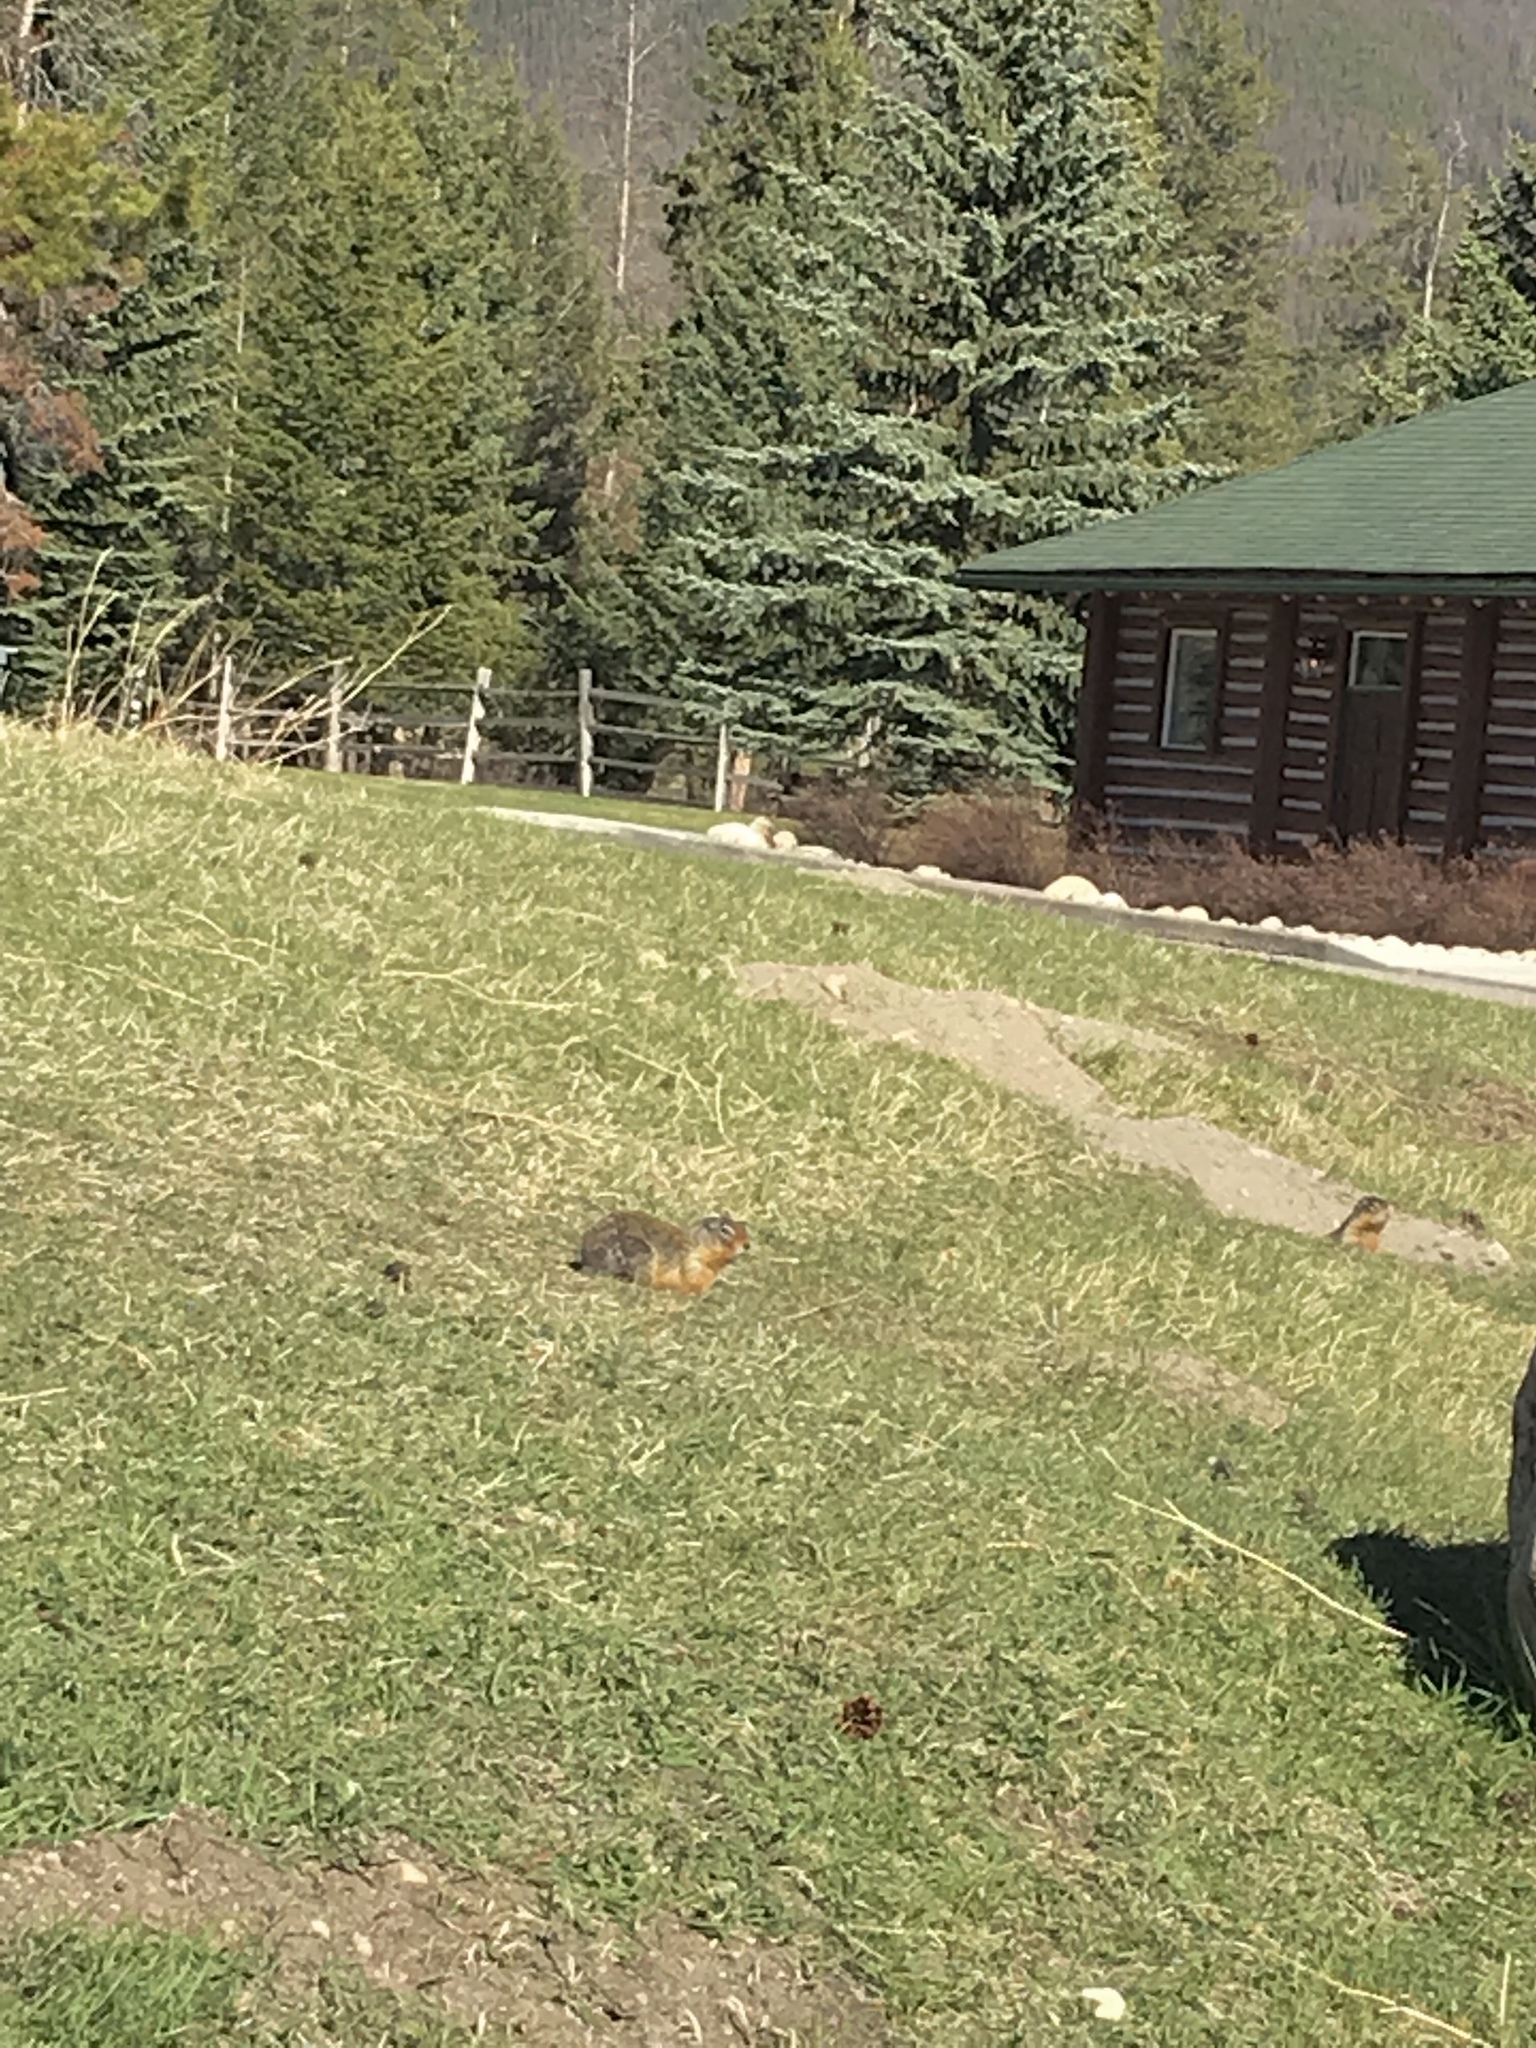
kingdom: Animalia
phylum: Chordata
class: Mammalia
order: Rodentia
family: Sciuridae
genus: Urocitellus
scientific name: Urocitellus columbianus
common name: Columbian ground squirrel
